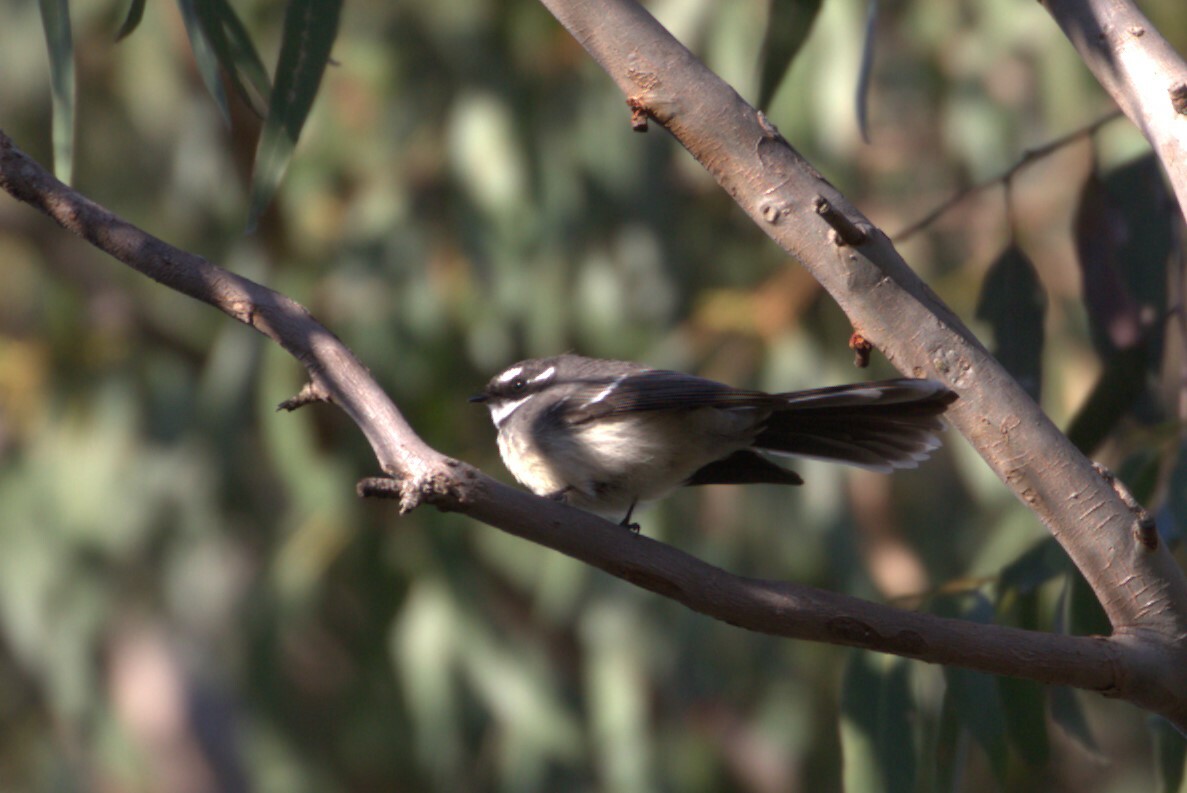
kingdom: Animalia
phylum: Chordata
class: Aves
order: Passeriformes
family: Rhipiduridae
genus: Rhipidura
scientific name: Rhipidura albiscapa
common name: Grey fantail
